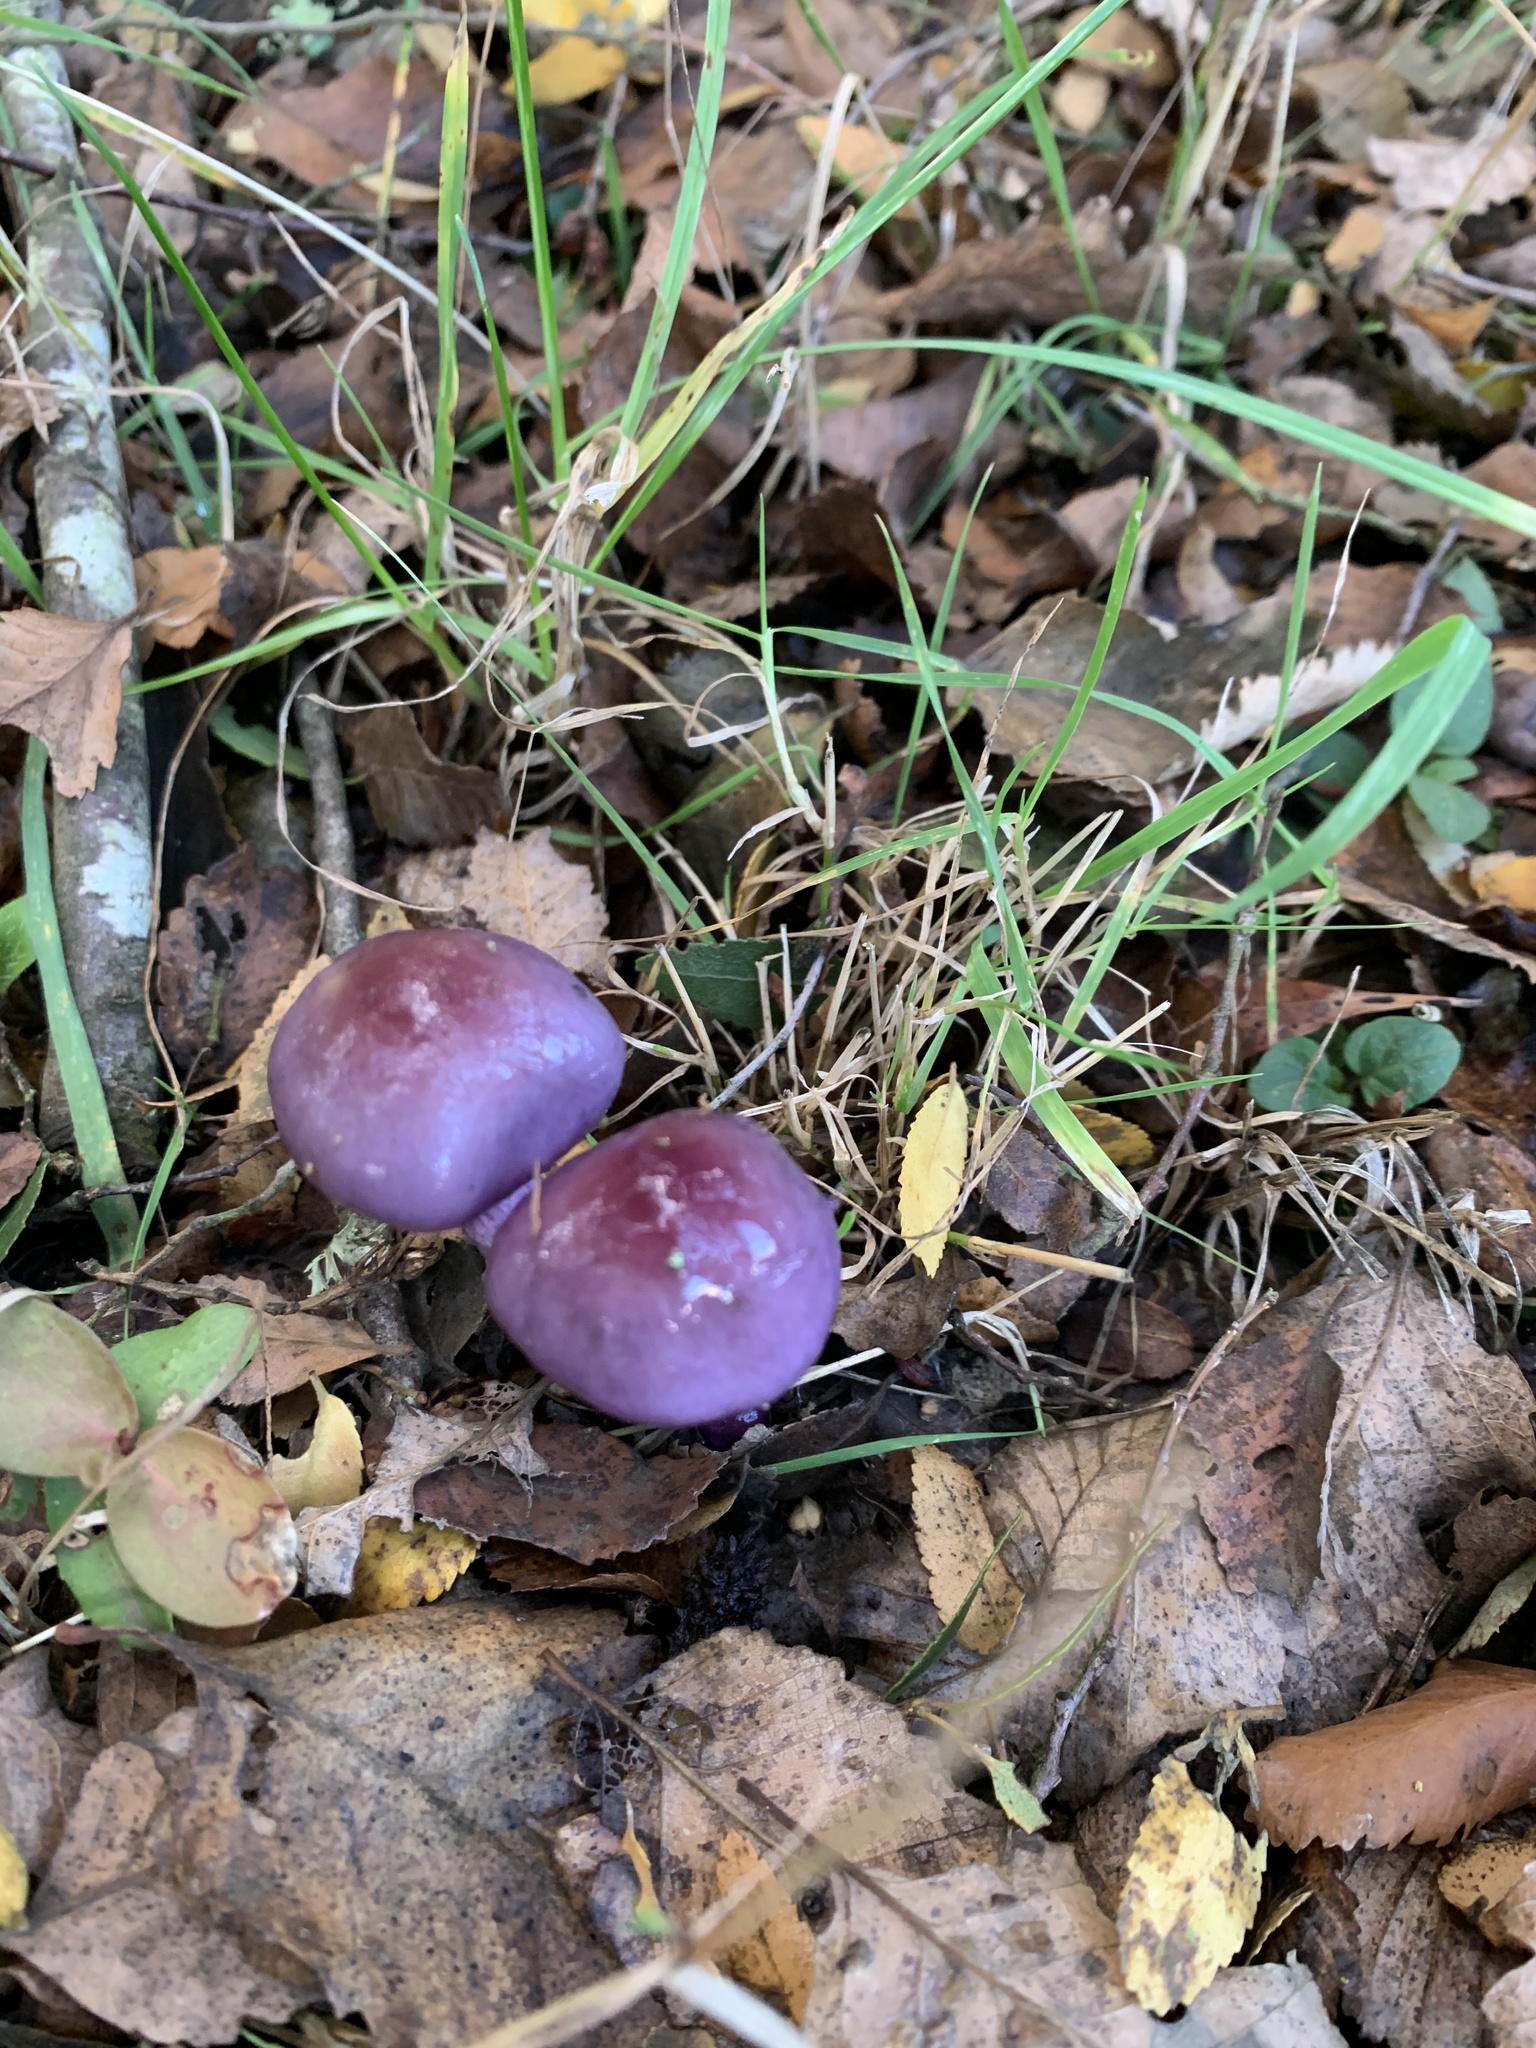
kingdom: Fungi
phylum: Basidiomycota
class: Agaricomycetes
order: Agaricales
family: Cortinariaceae
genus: Cortinarius
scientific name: Cortinarius magellanicus
